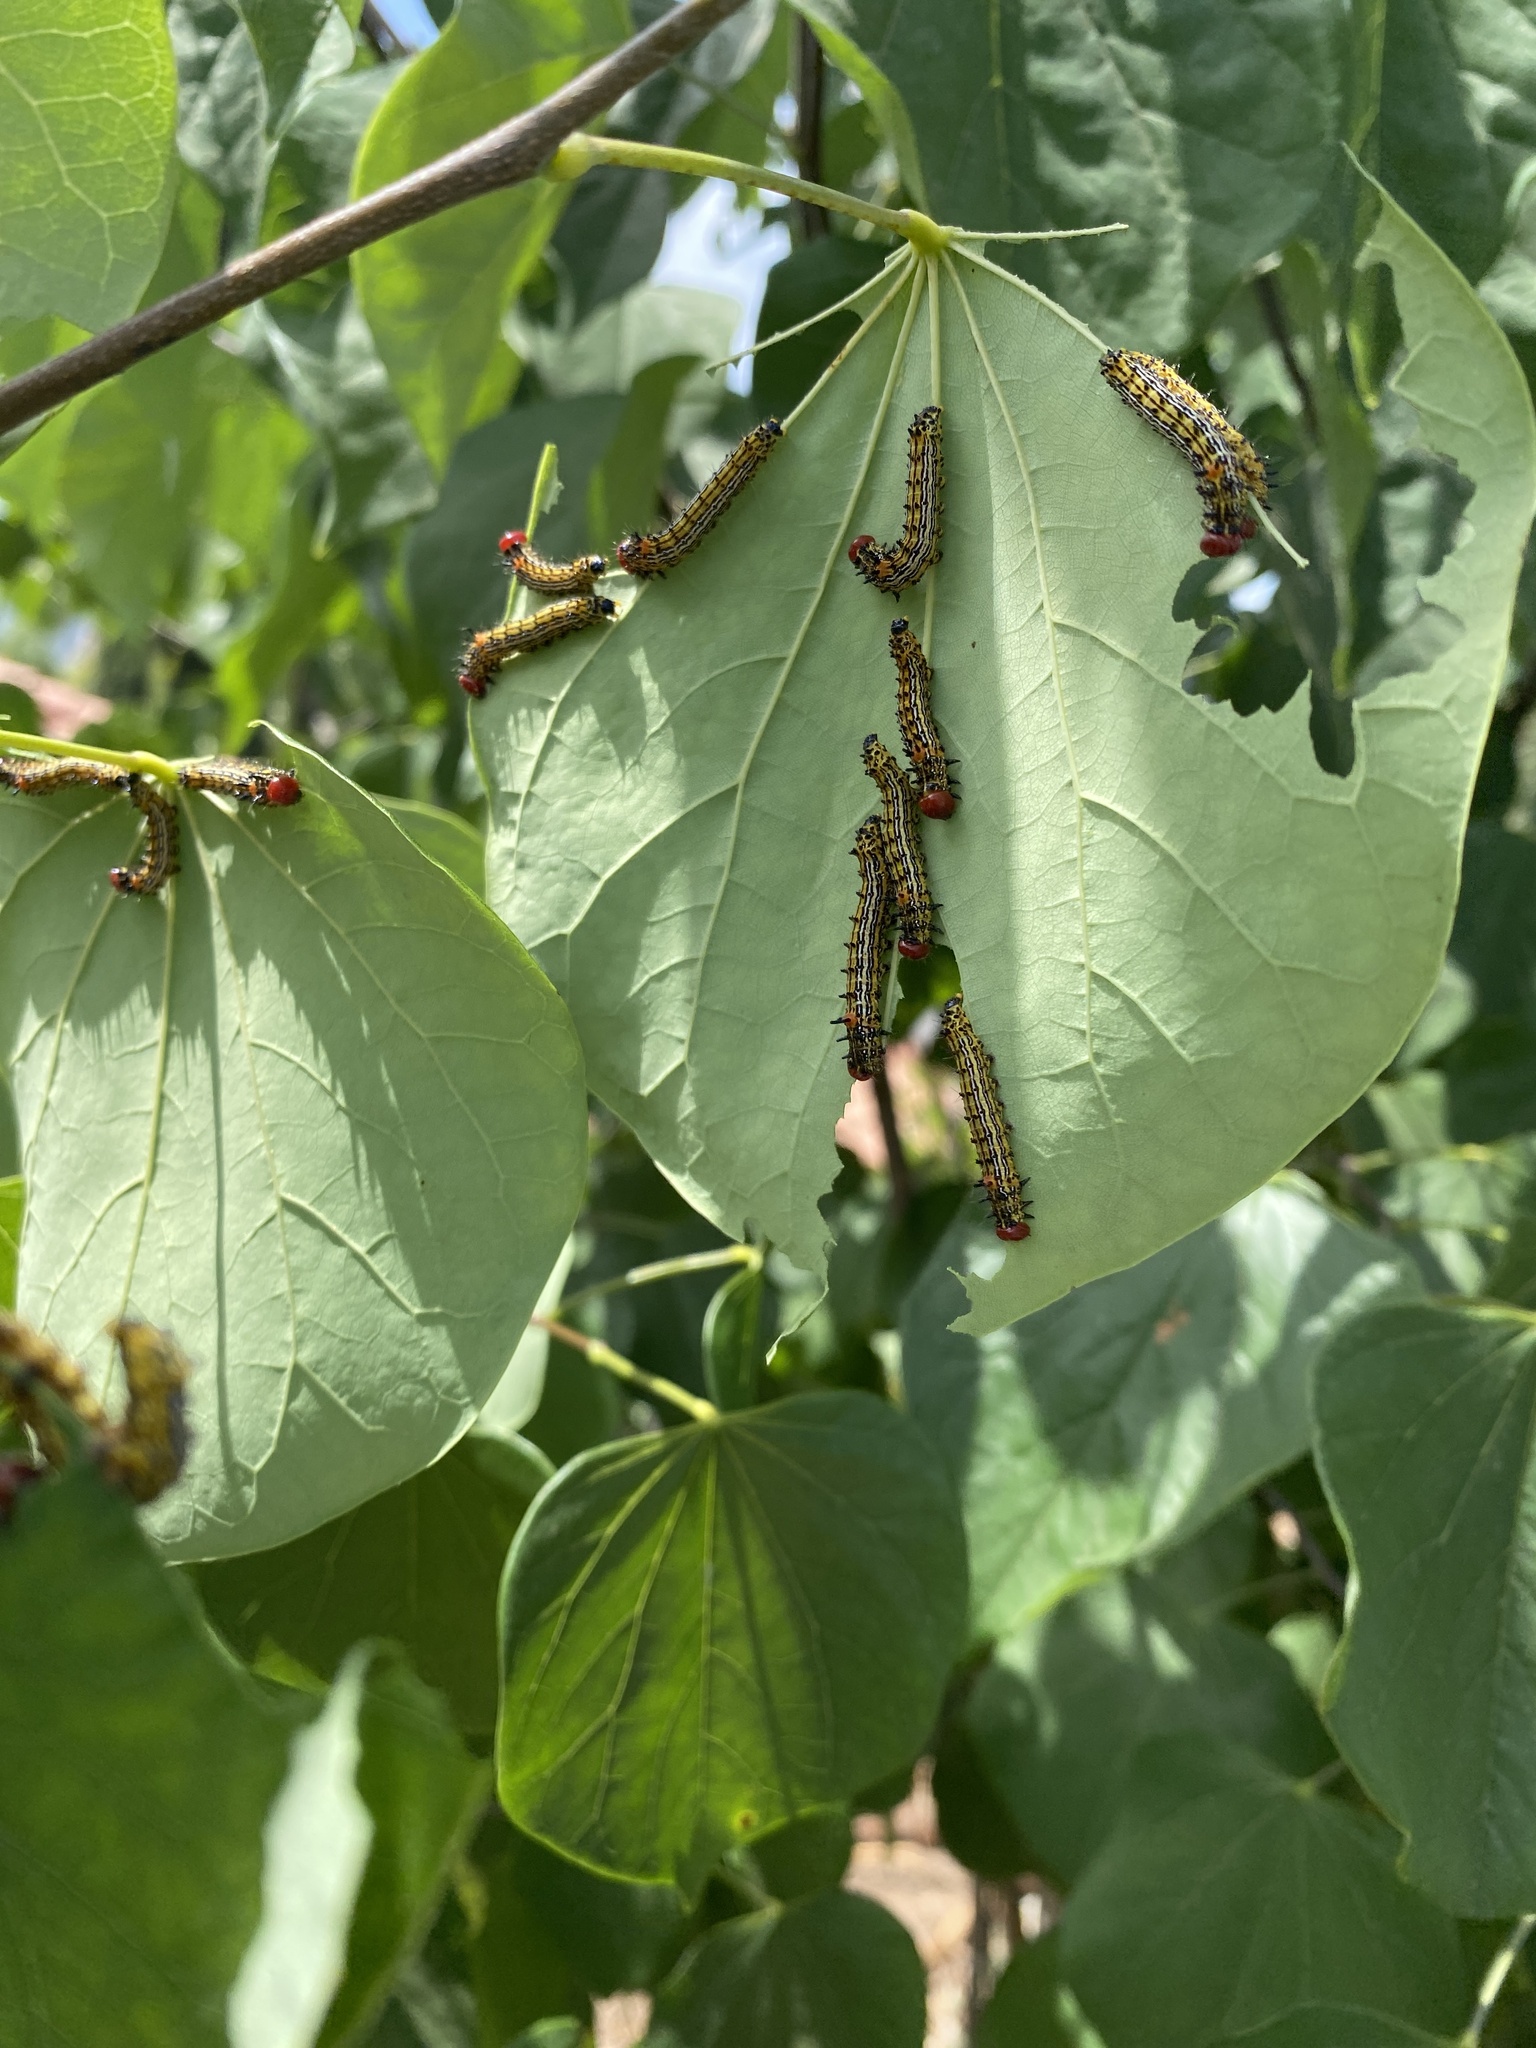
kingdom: Animalia
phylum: Arthropoda
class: Insecta
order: Lepidoptera
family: Notodontidae
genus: Schizura
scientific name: Schizura
